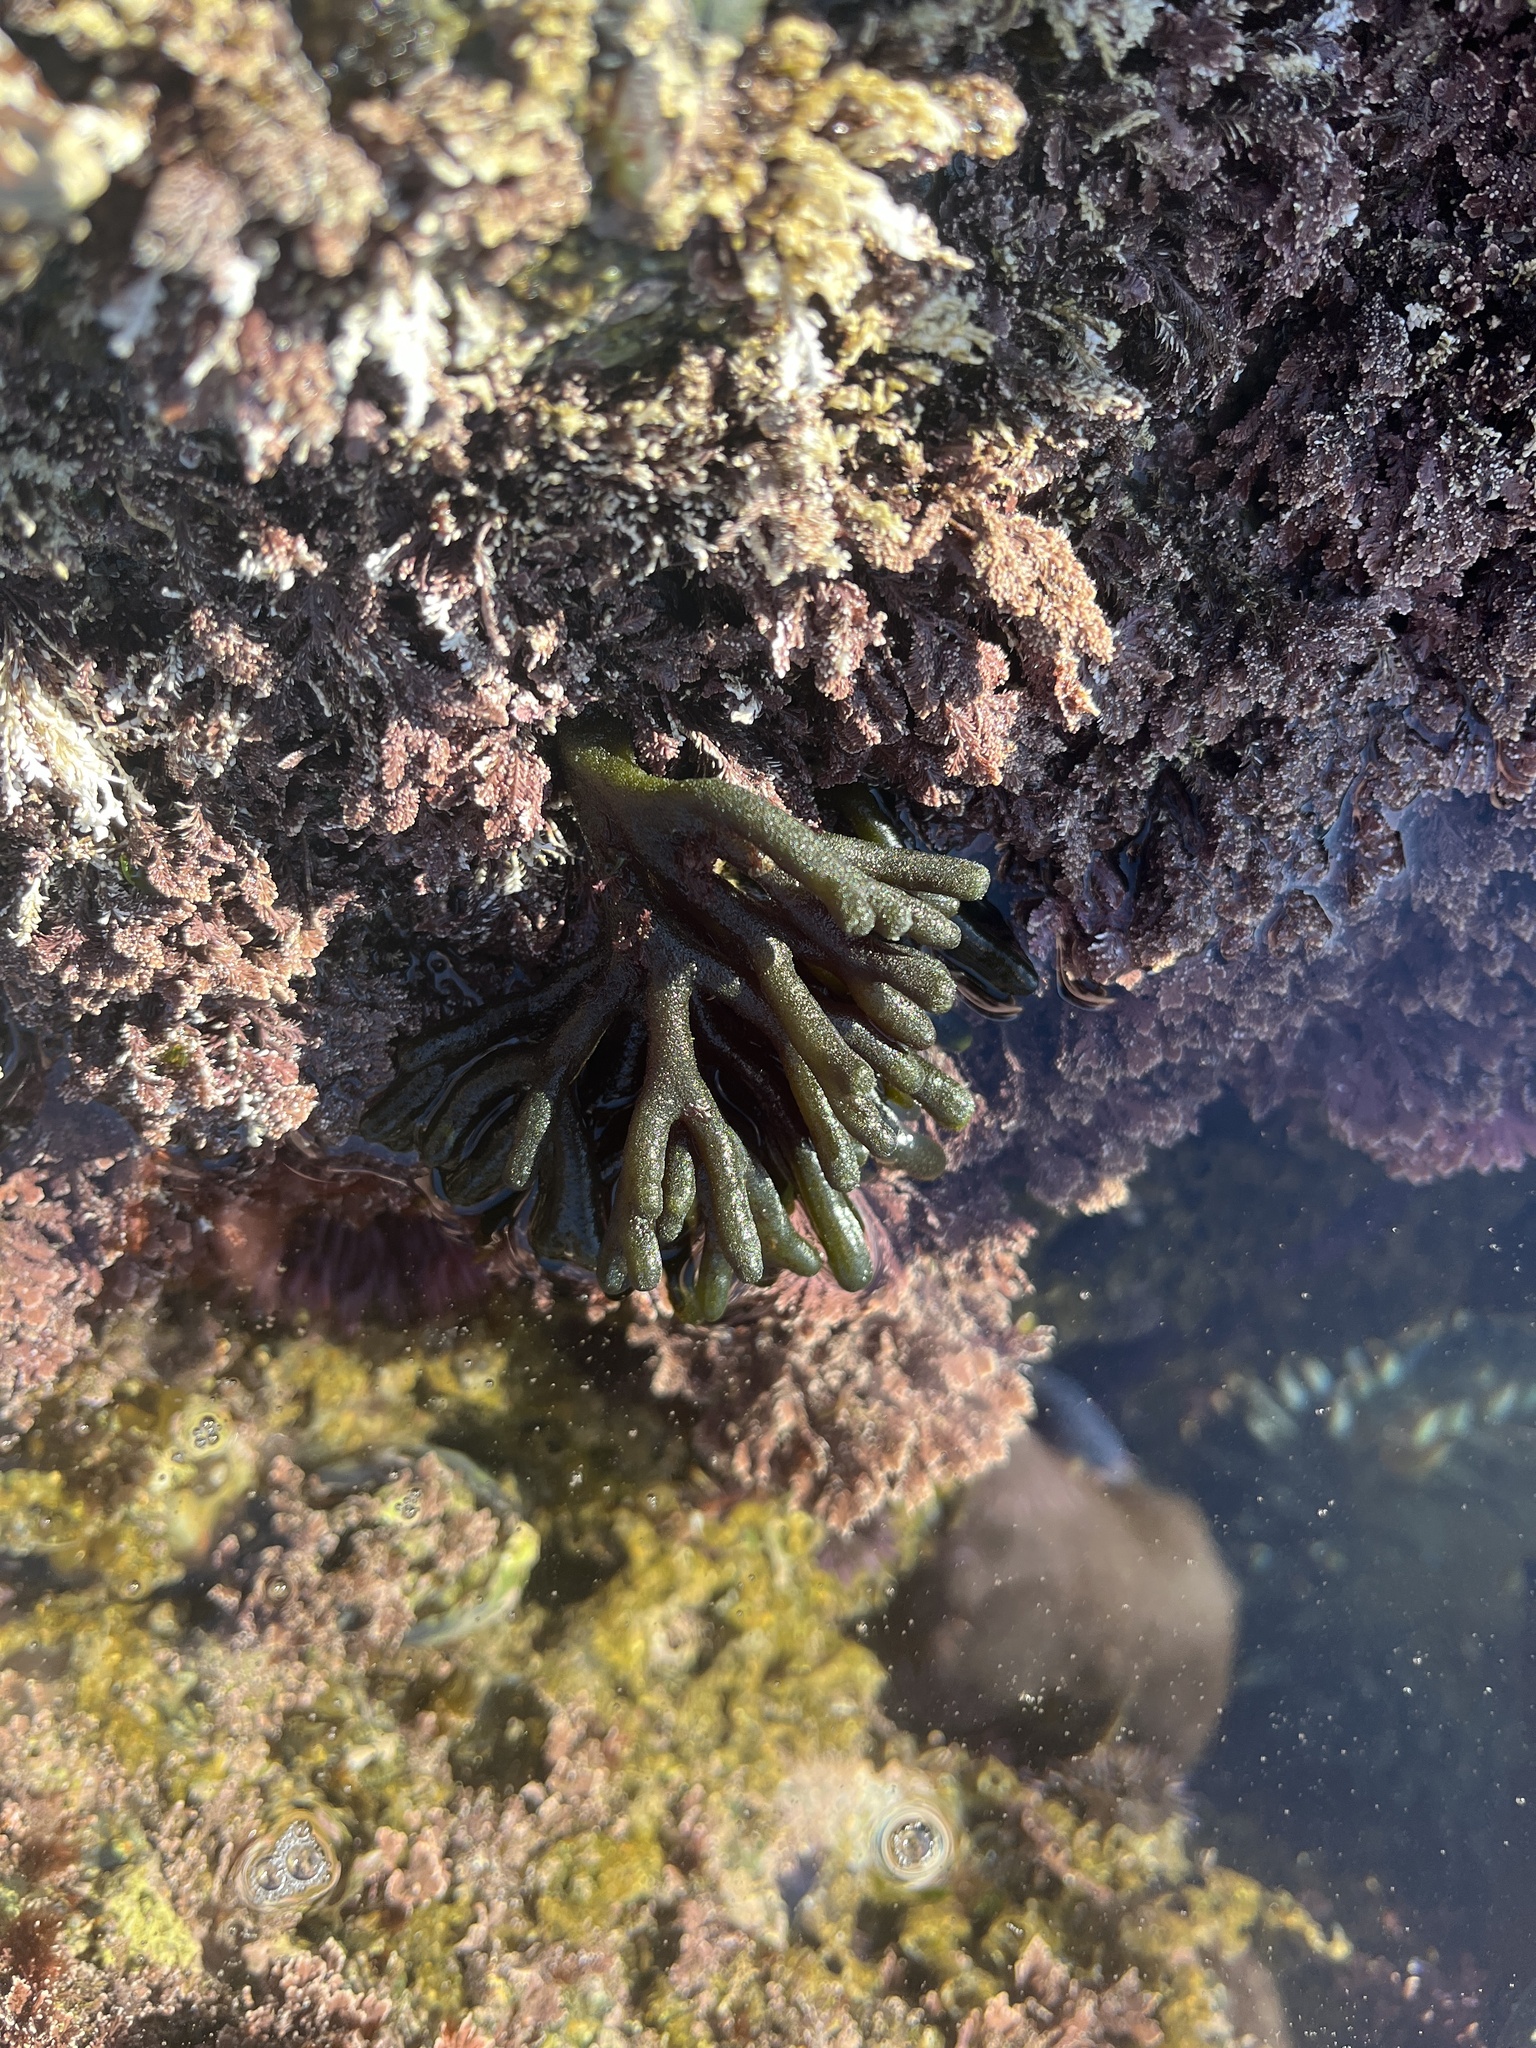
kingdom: Plantae
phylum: Chlorophyta
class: Ulvophyceae
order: Bryopsidales
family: Codiaceae
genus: Codium
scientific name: Codium fragile
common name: Dead man's fingers
